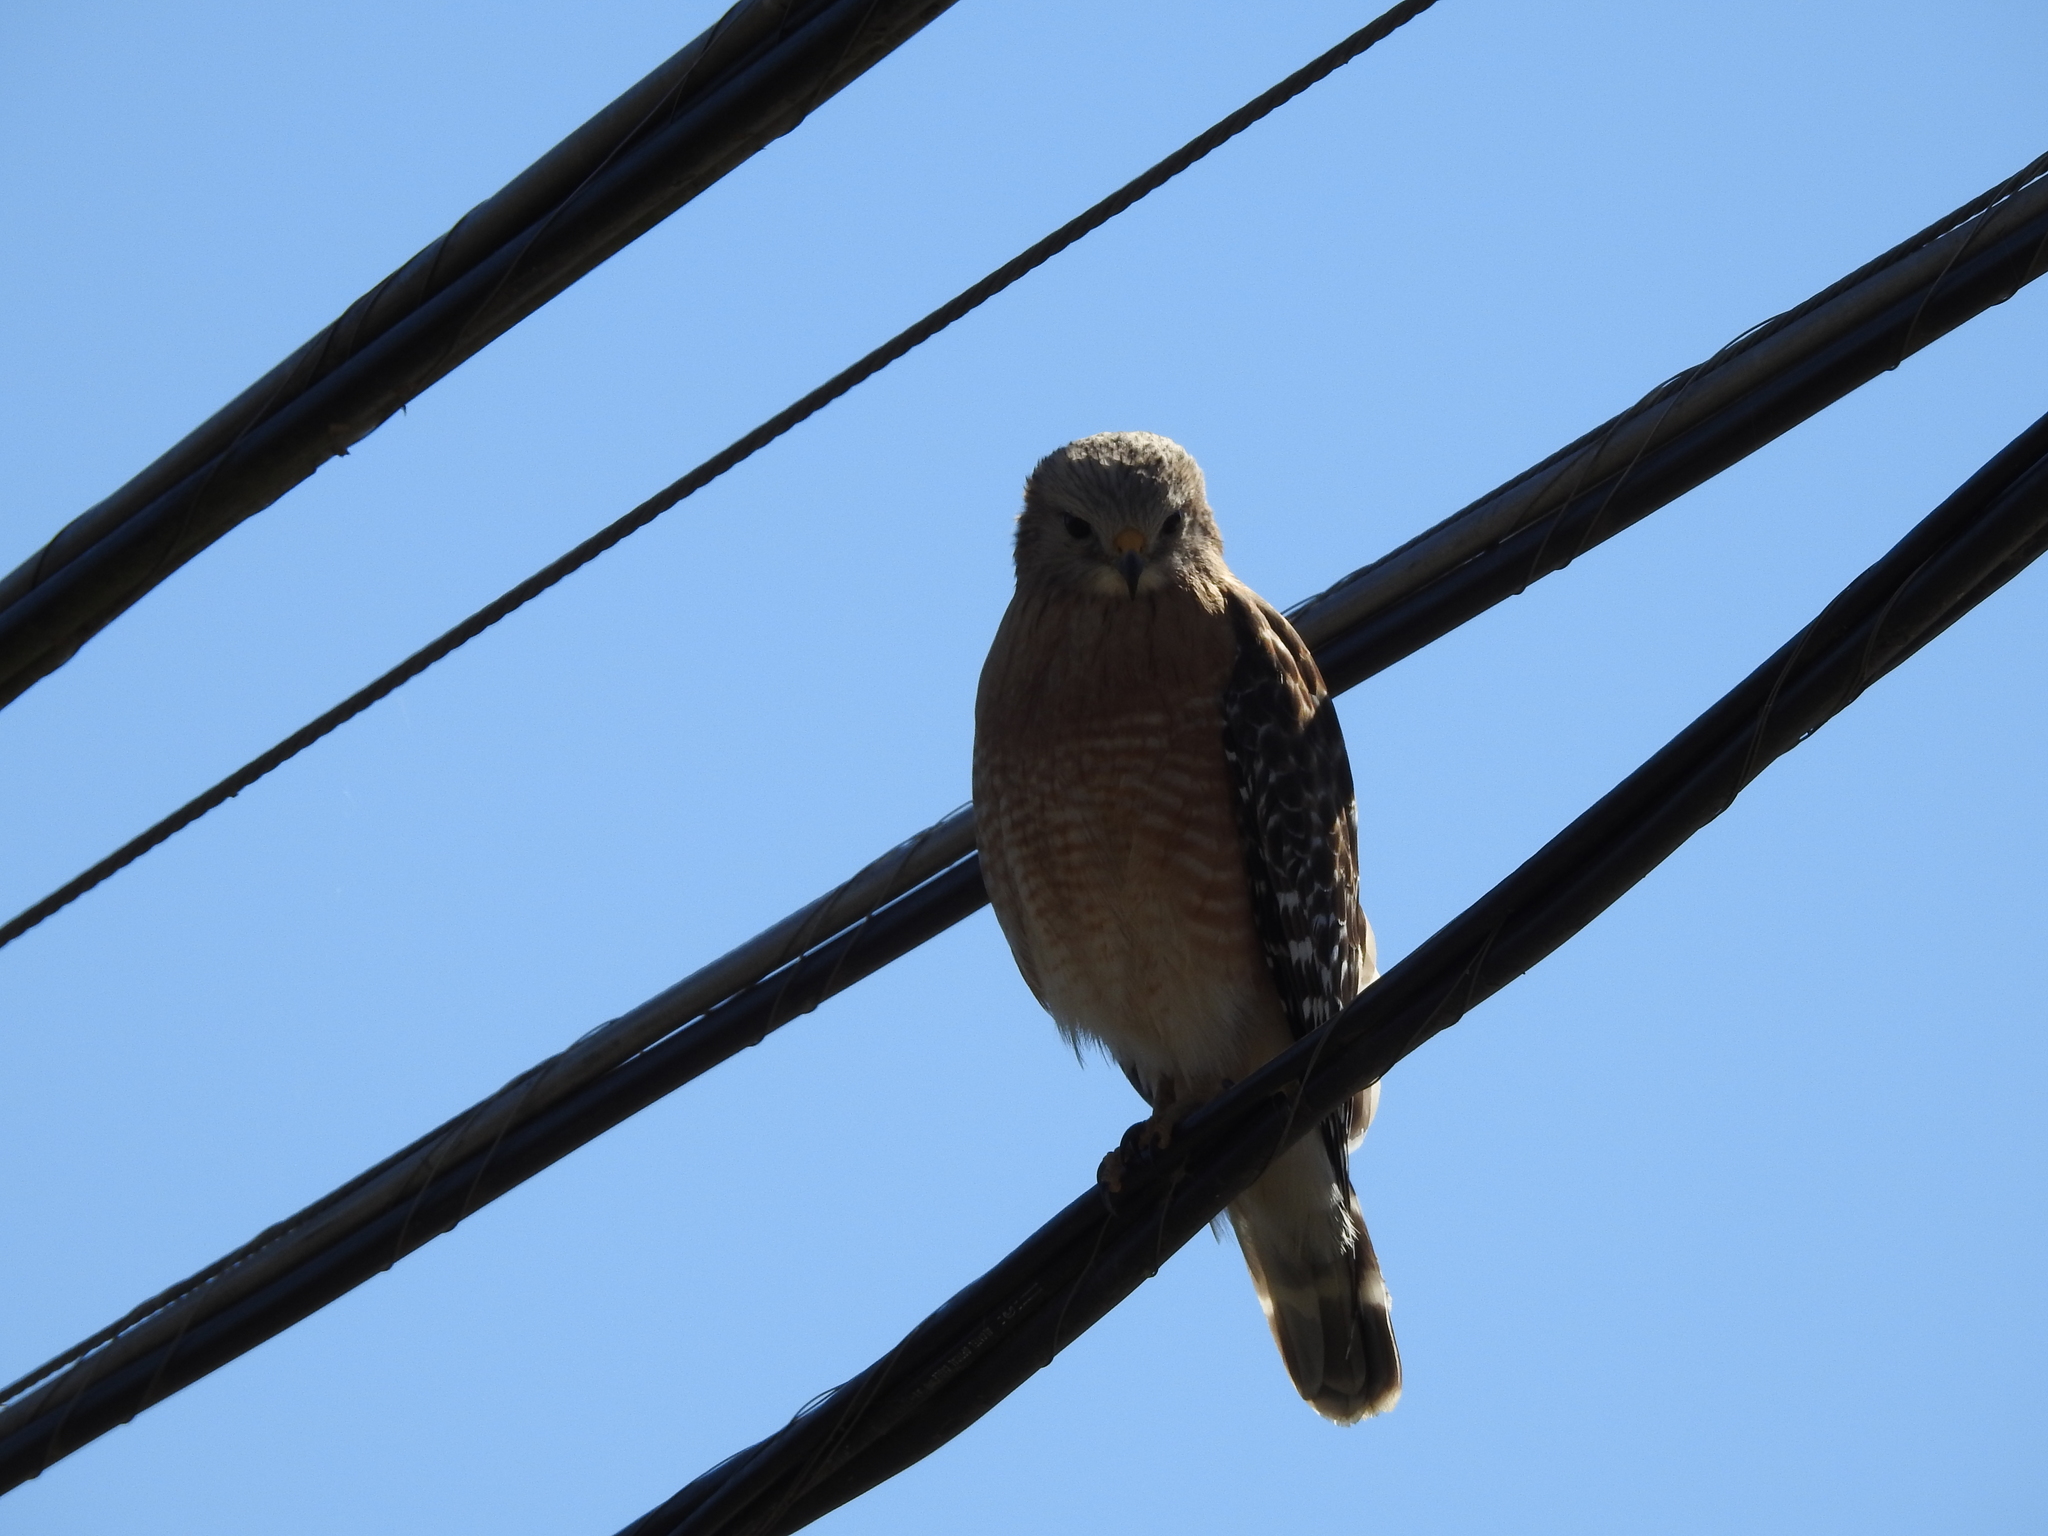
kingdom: Animalia
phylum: Chordata
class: Aves
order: Accipitriformes
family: Accipitridae
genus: Buteo
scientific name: Buteo lineatus
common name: Red-shouldered hawk
